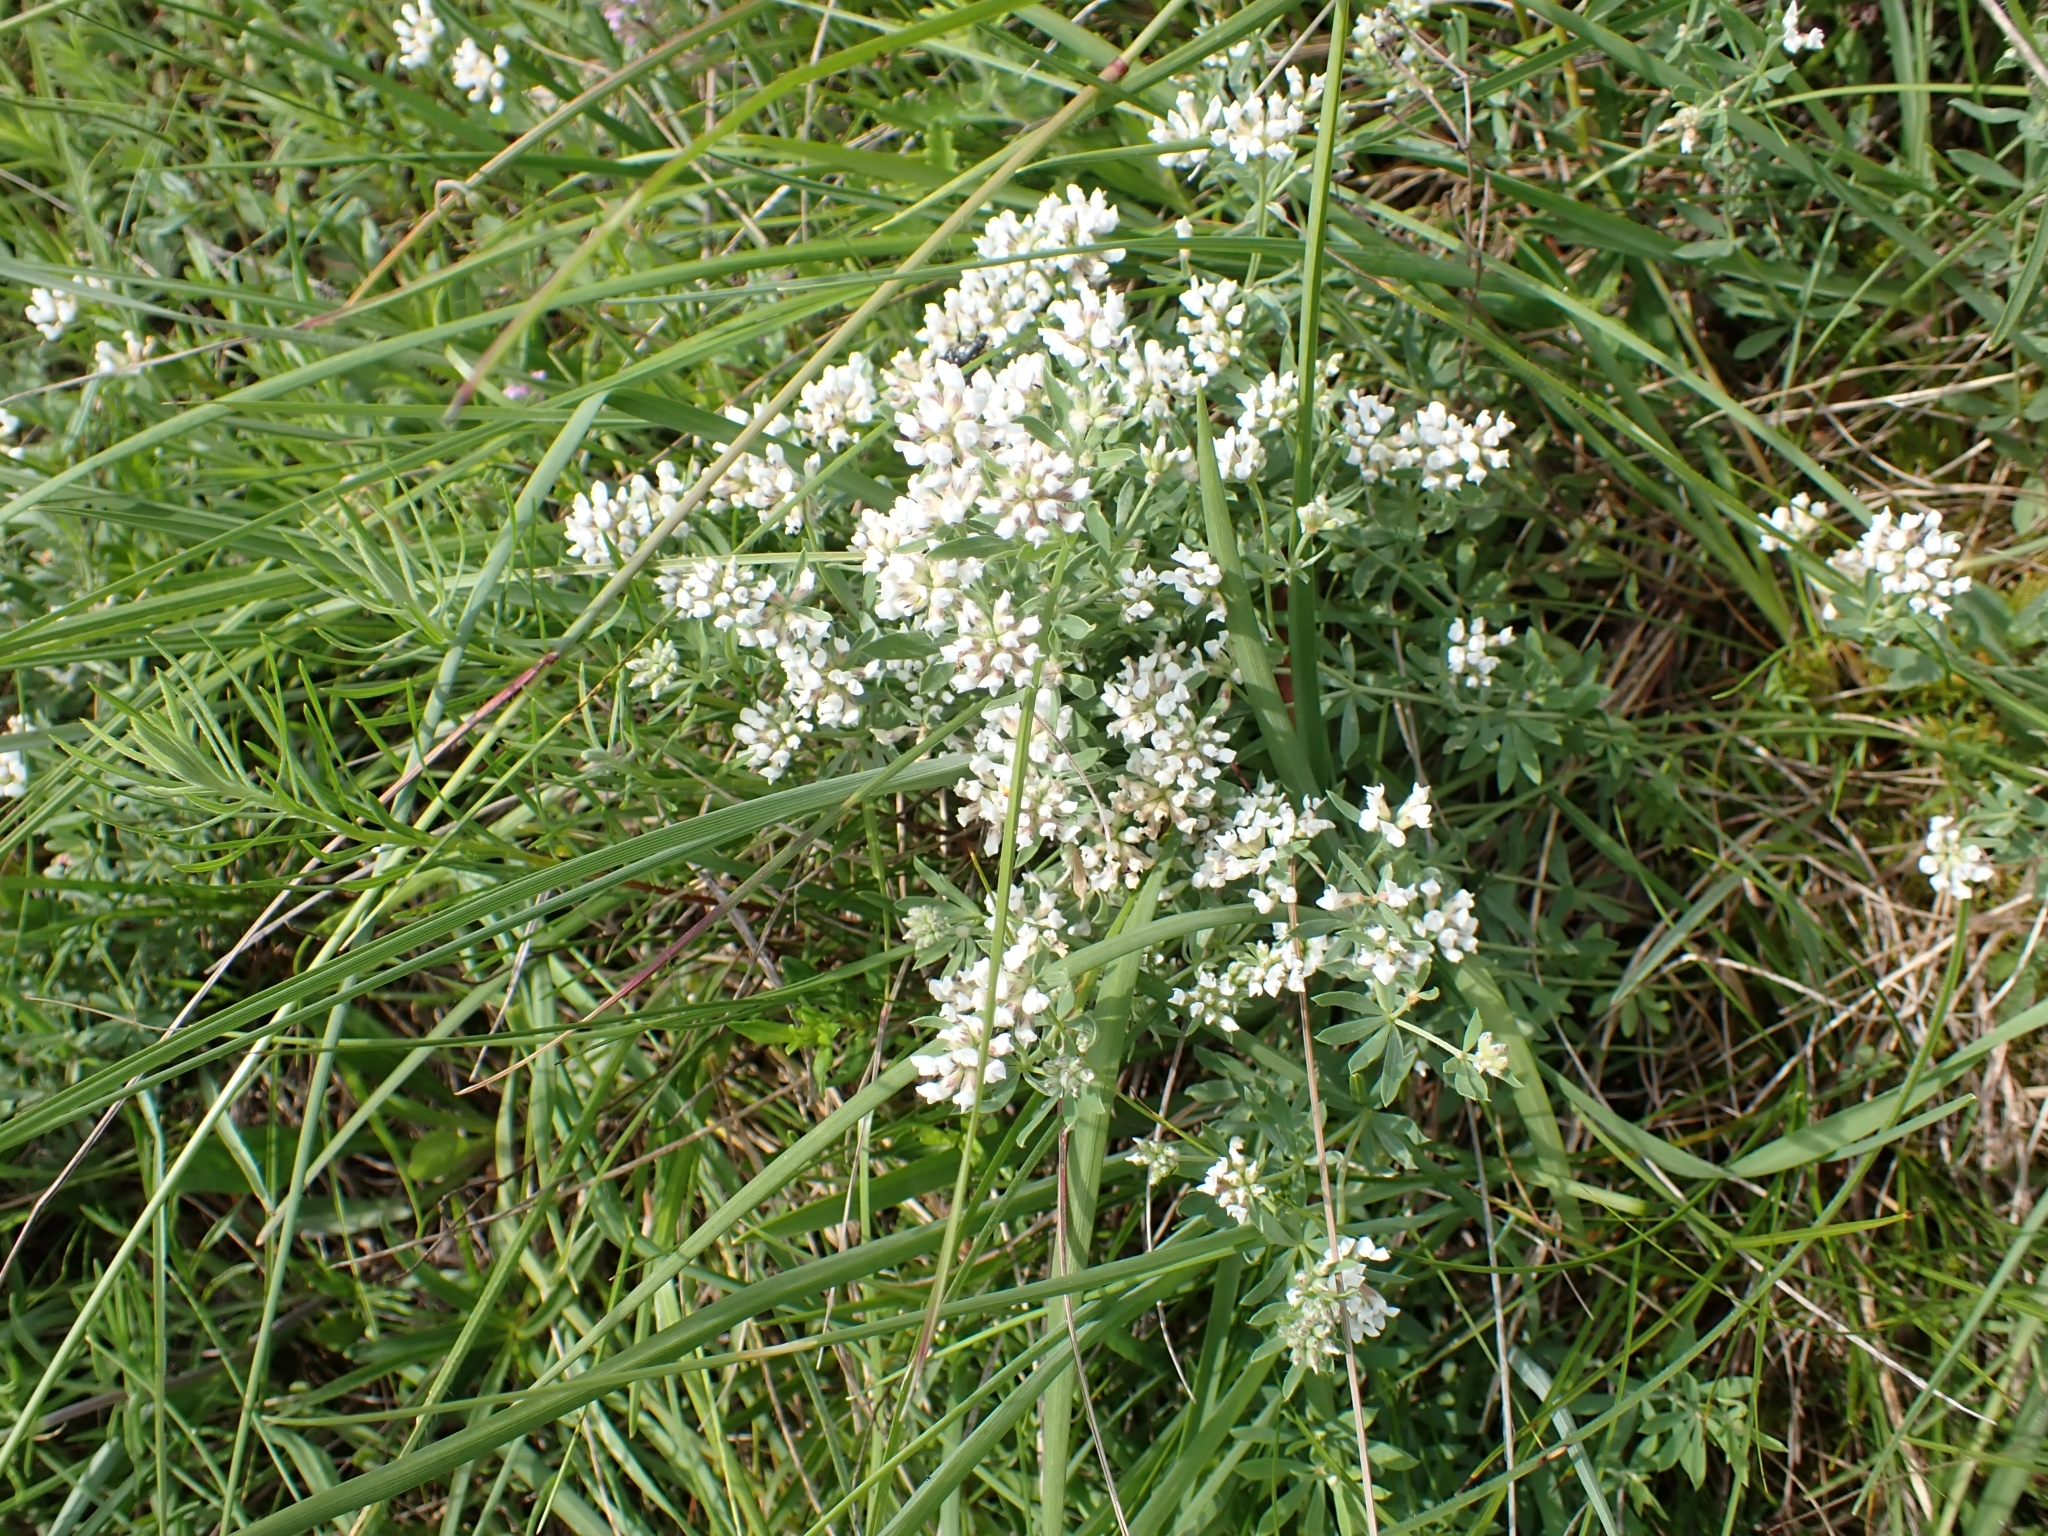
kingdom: Plantae
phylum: Tracheophyta
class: Magnoliopsida
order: Fabales
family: Fabaceae
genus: Lotus
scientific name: Lotus germanicus
